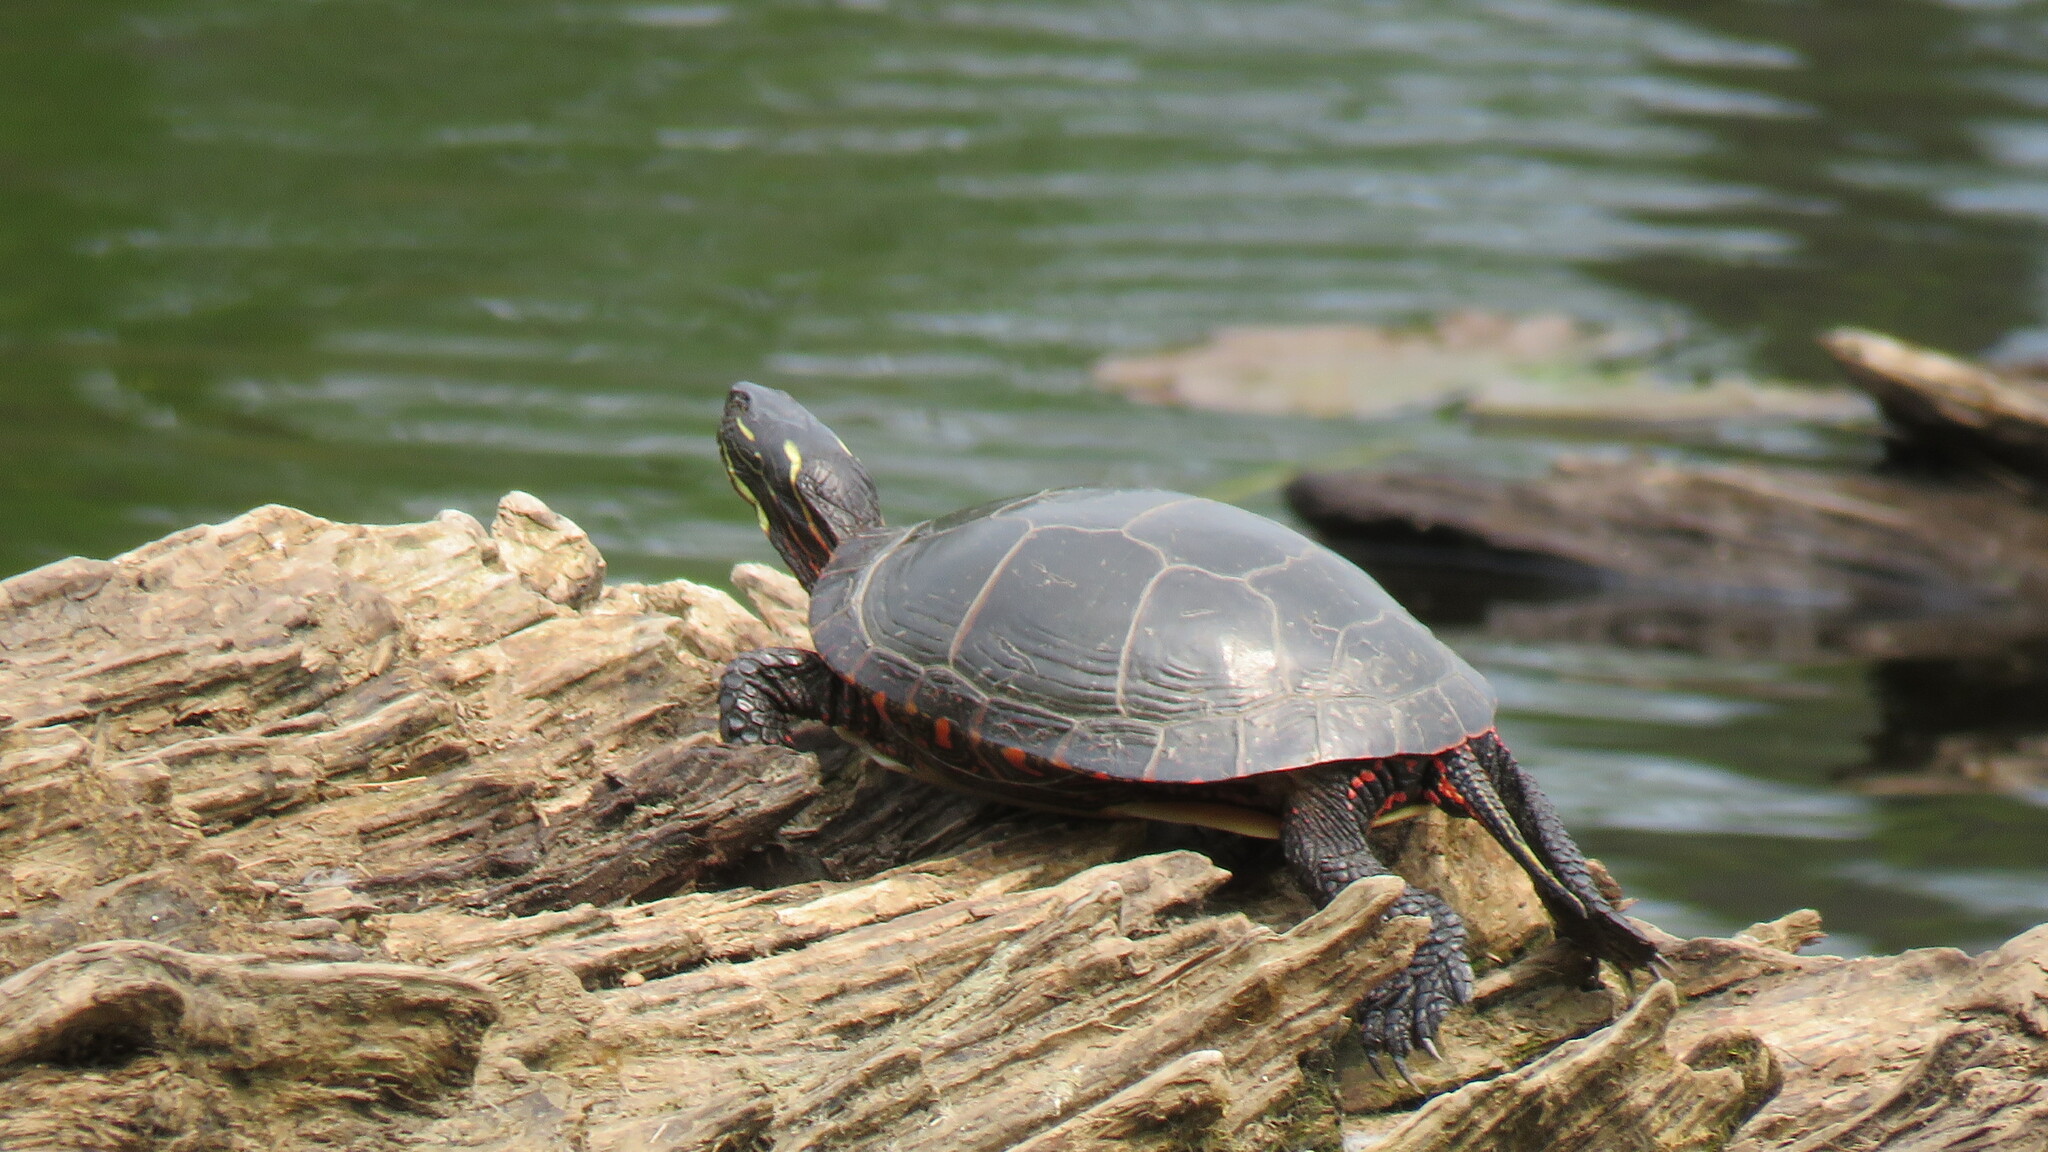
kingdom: Animalia
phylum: Chordata
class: Testudines
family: Emydidae
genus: Chrysemys
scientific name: Chrysemys picta
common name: Painted turtle
